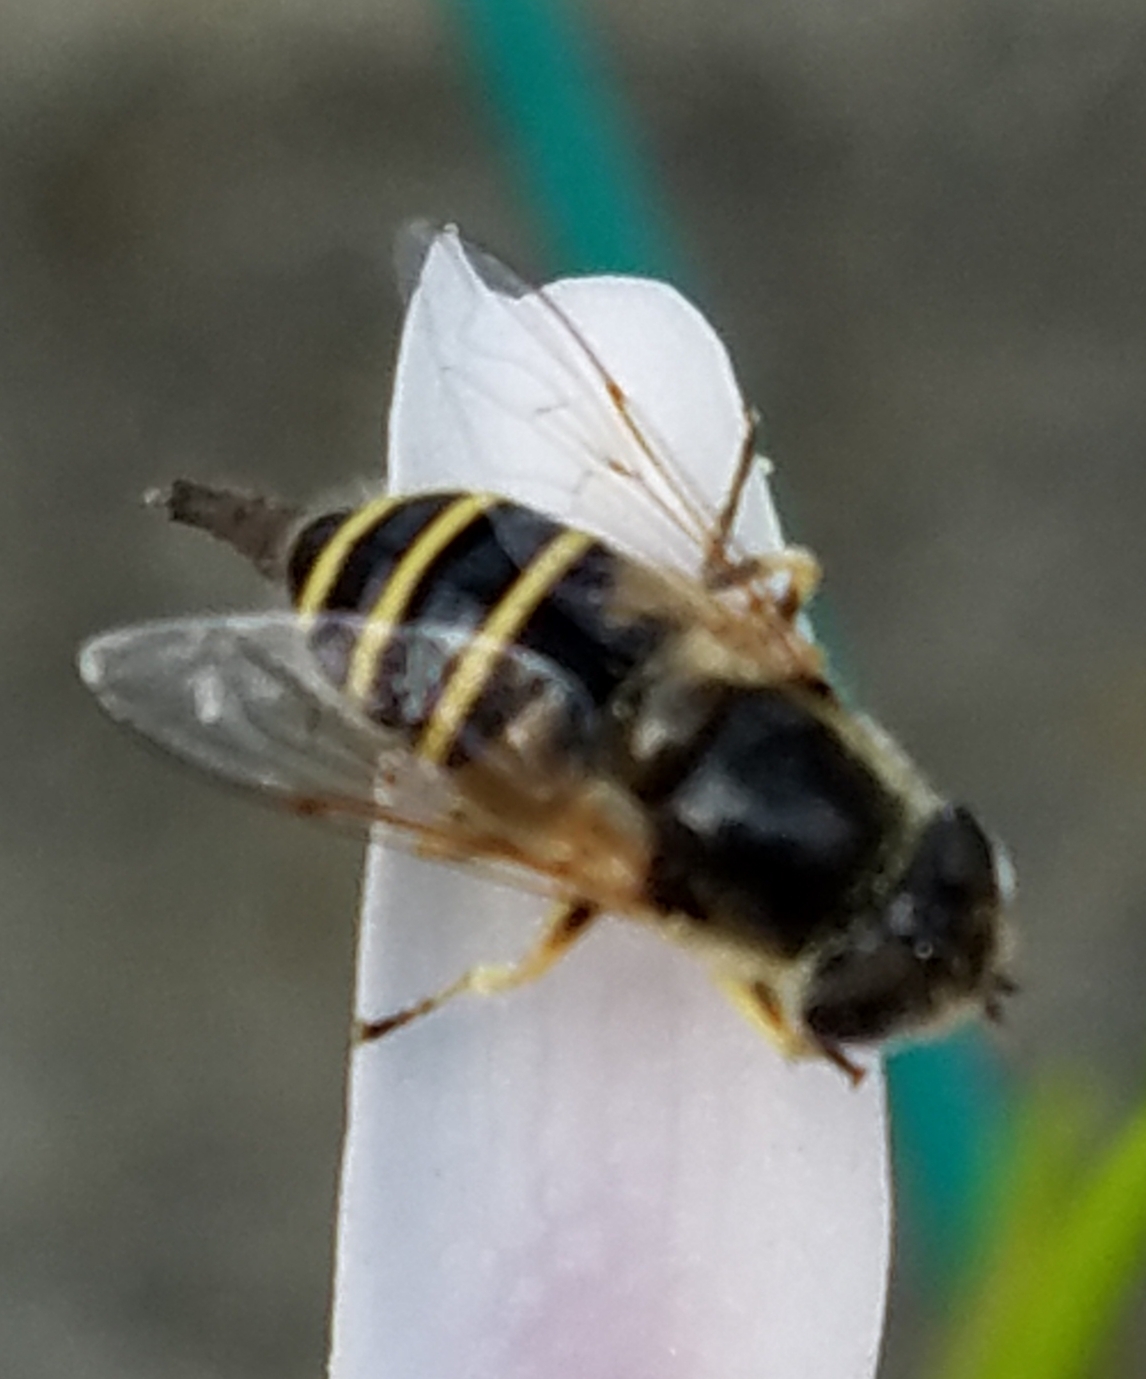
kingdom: Animalia
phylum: Arthropoda
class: Insecta
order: Diptera
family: Syrphidae
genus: Eristalis
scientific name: Eristalis hirta
